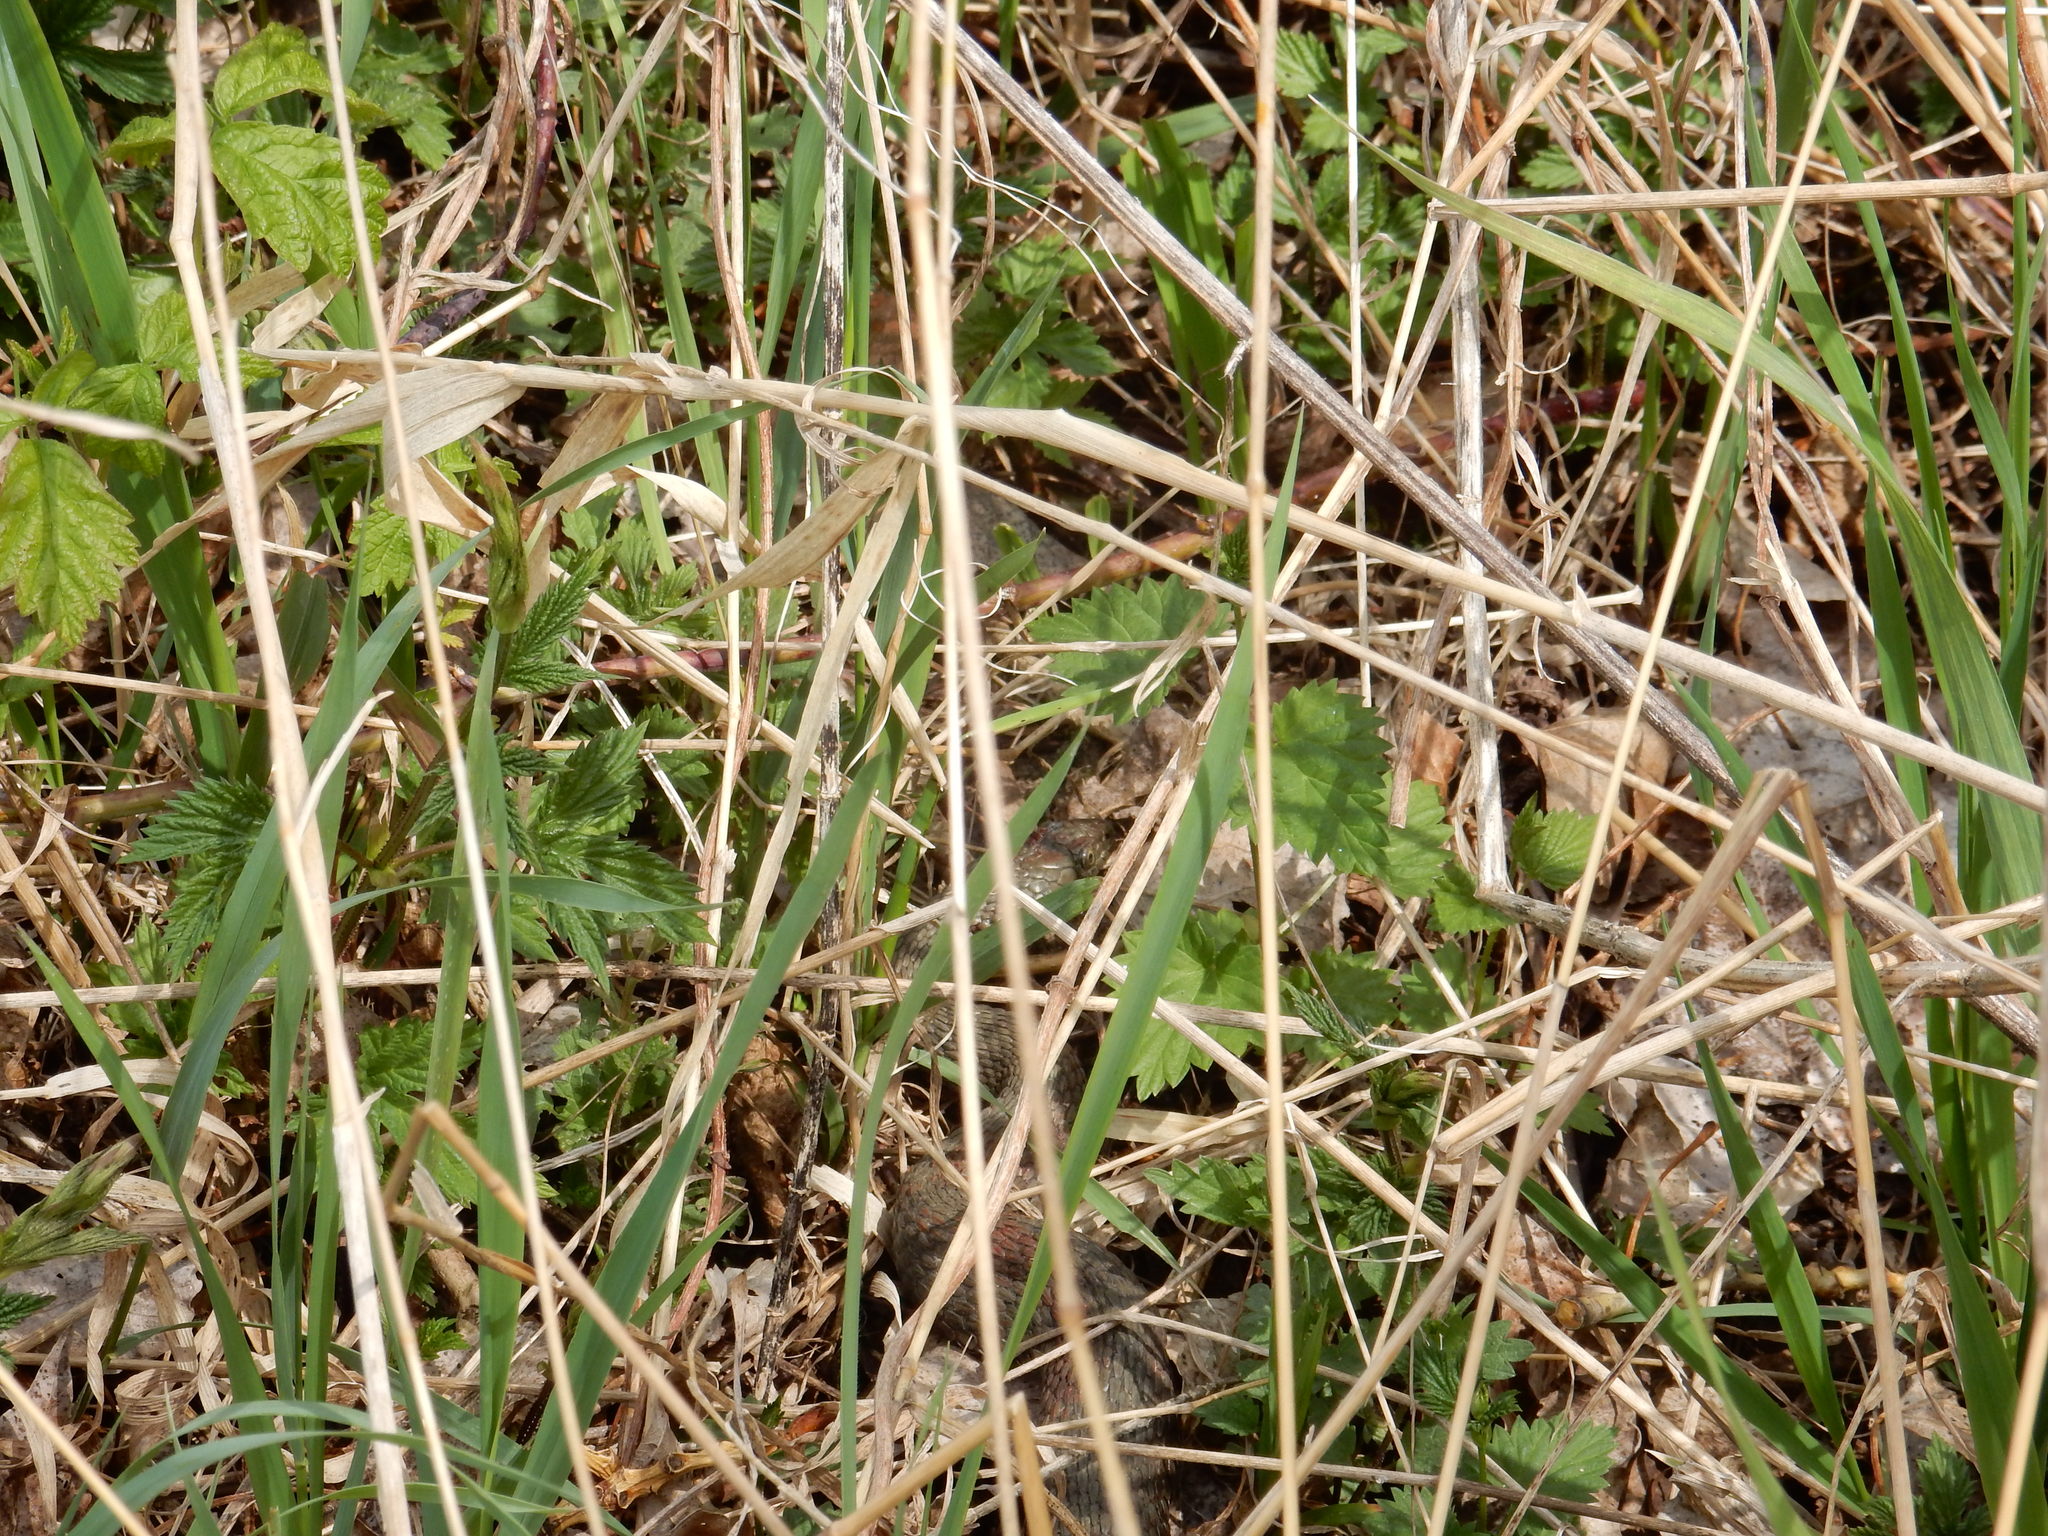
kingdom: Animalia
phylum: Chordata
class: Squamata
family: Colubridae
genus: Natrix
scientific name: Natrix tessellata
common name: Dice snake
